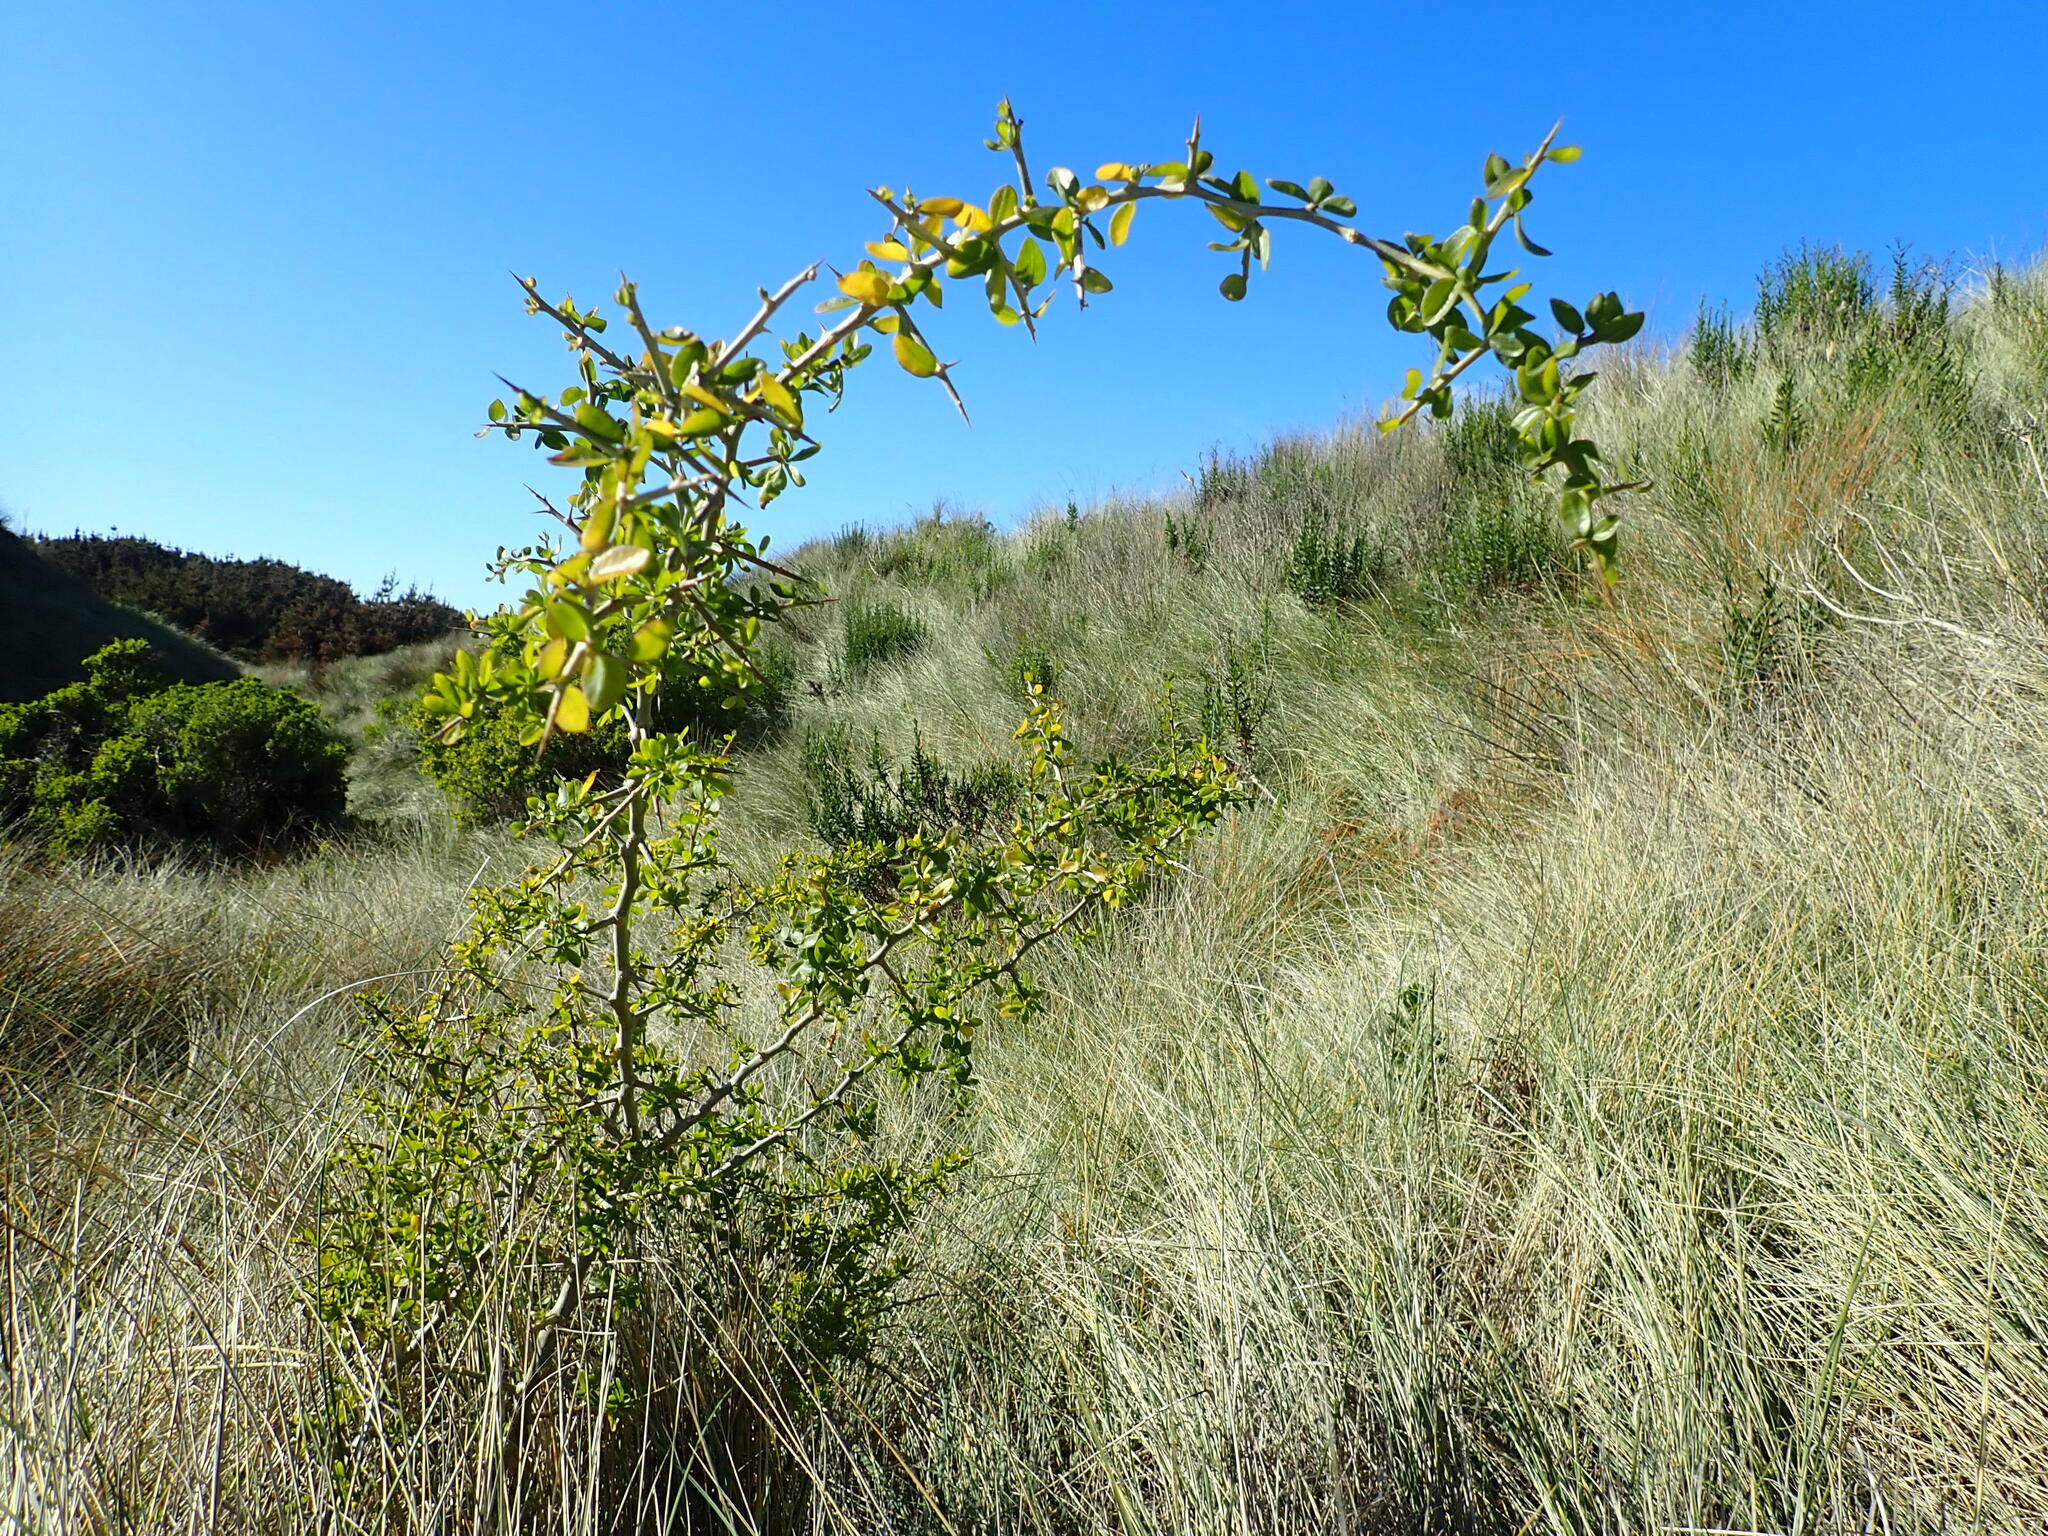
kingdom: Plantae
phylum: Tracheophyta
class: Magnoliopsida
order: Solanales
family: Solanaceae
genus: Lycium
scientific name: Lycium ferocissimum
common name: African boxthorn
